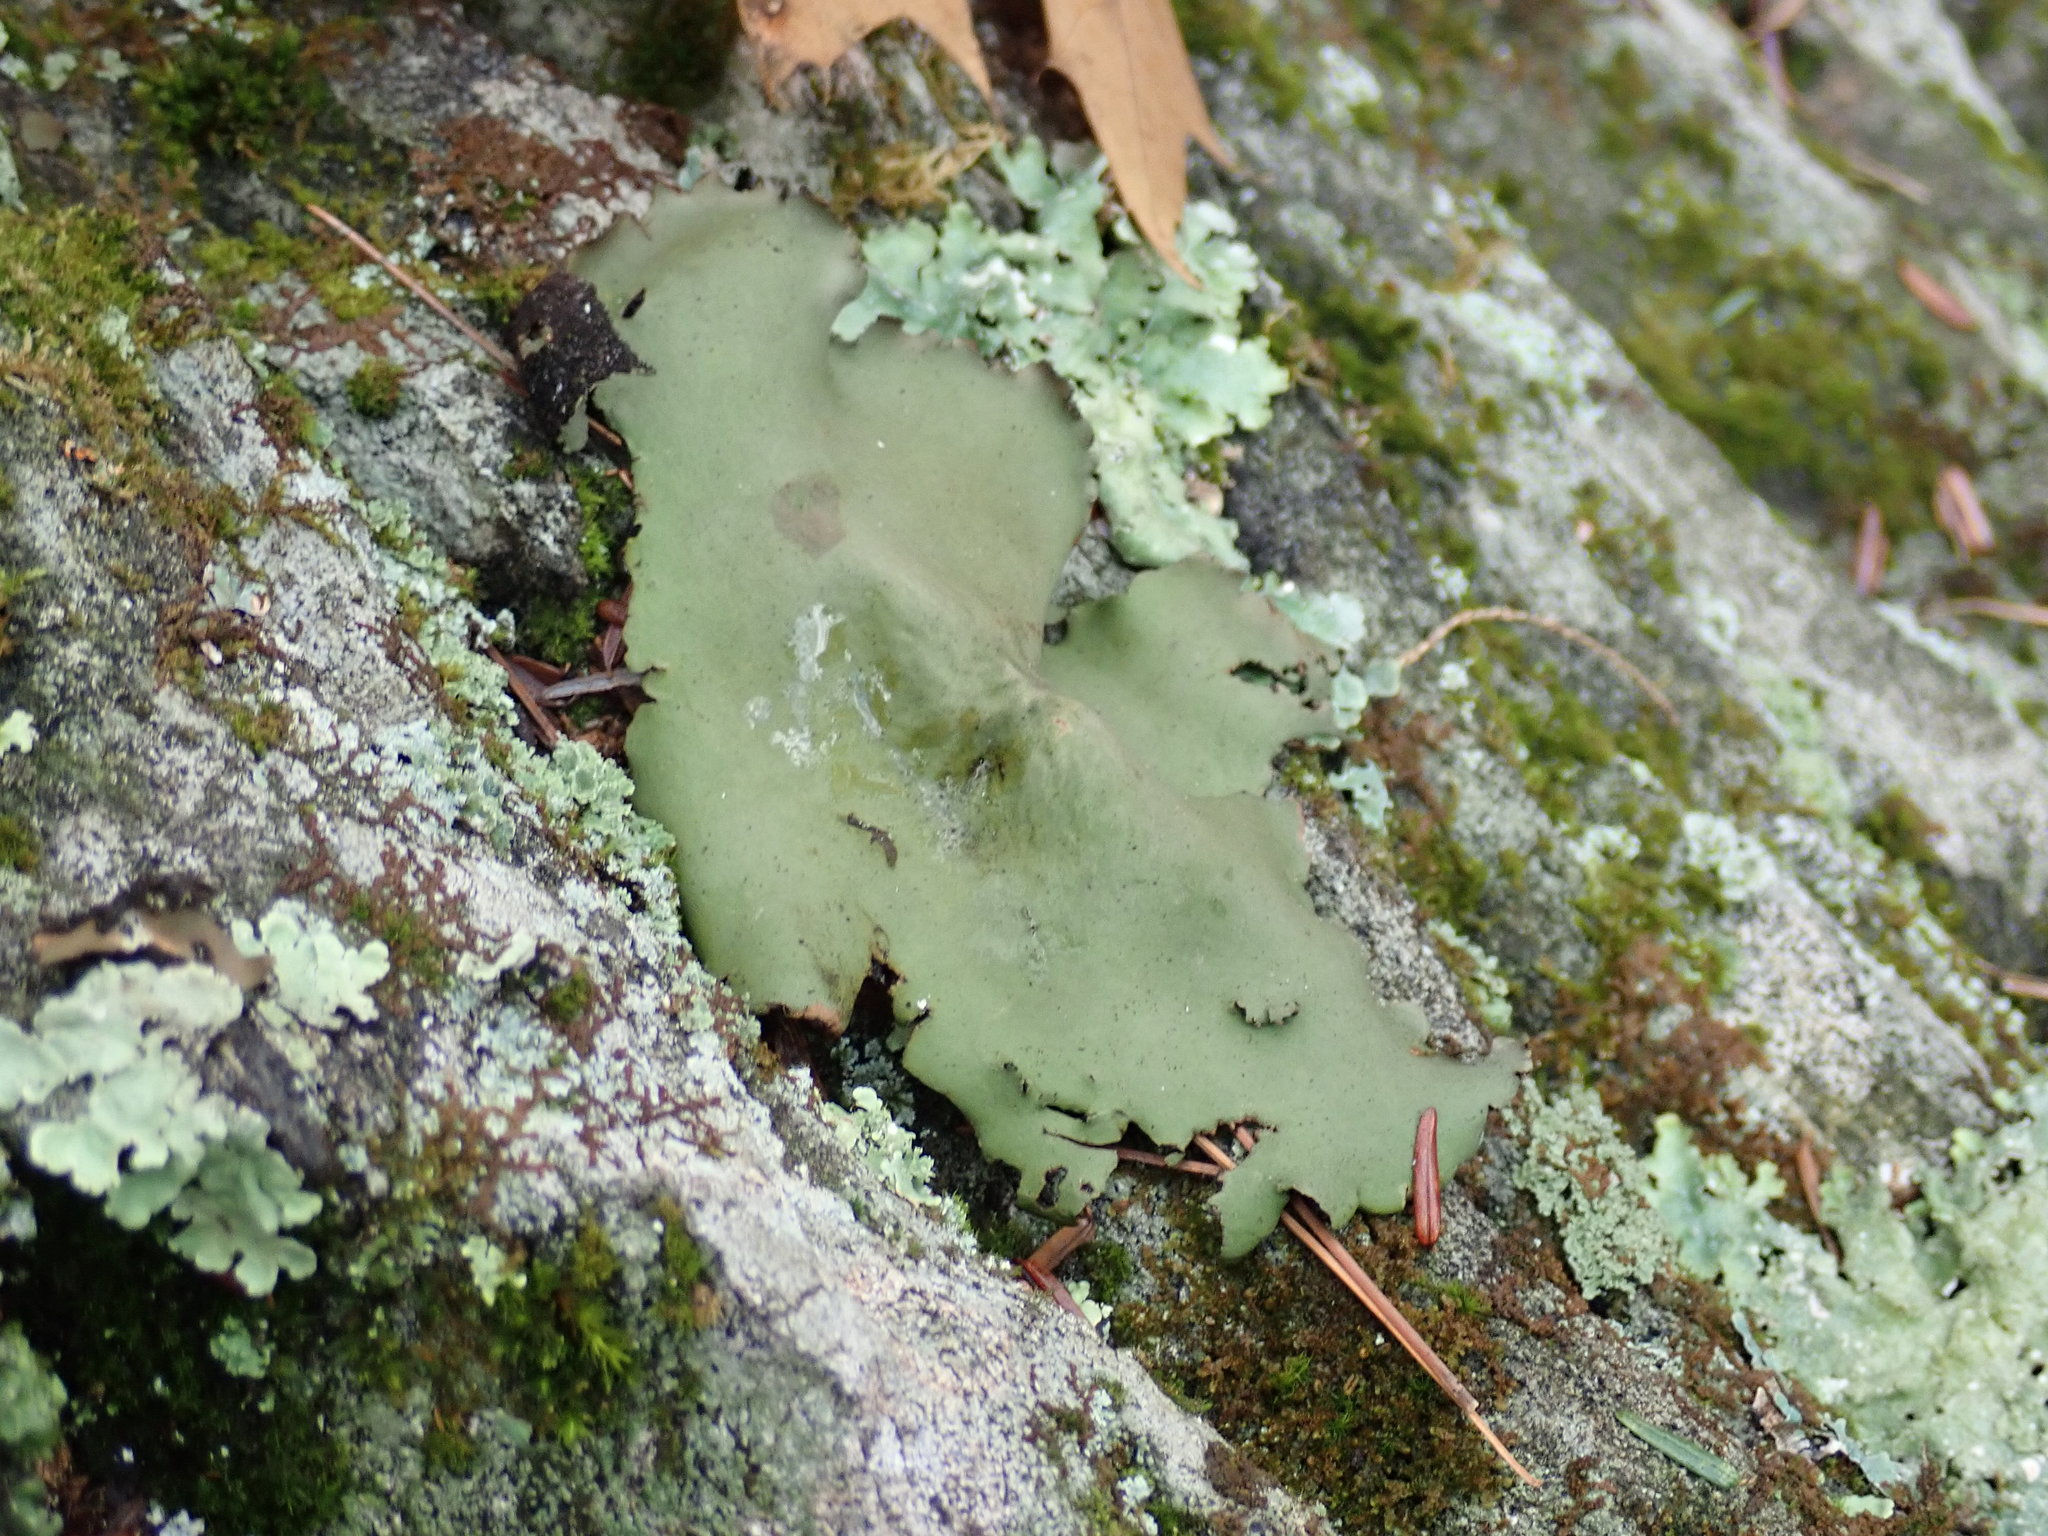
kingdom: Fungi
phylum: Ascomycota
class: Lecanoromycetes
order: Umbilicariales
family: Umbilicariaceae
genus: Umbilicaria
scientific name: Umbilicaria mammulata
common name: Smooth rock tripe
